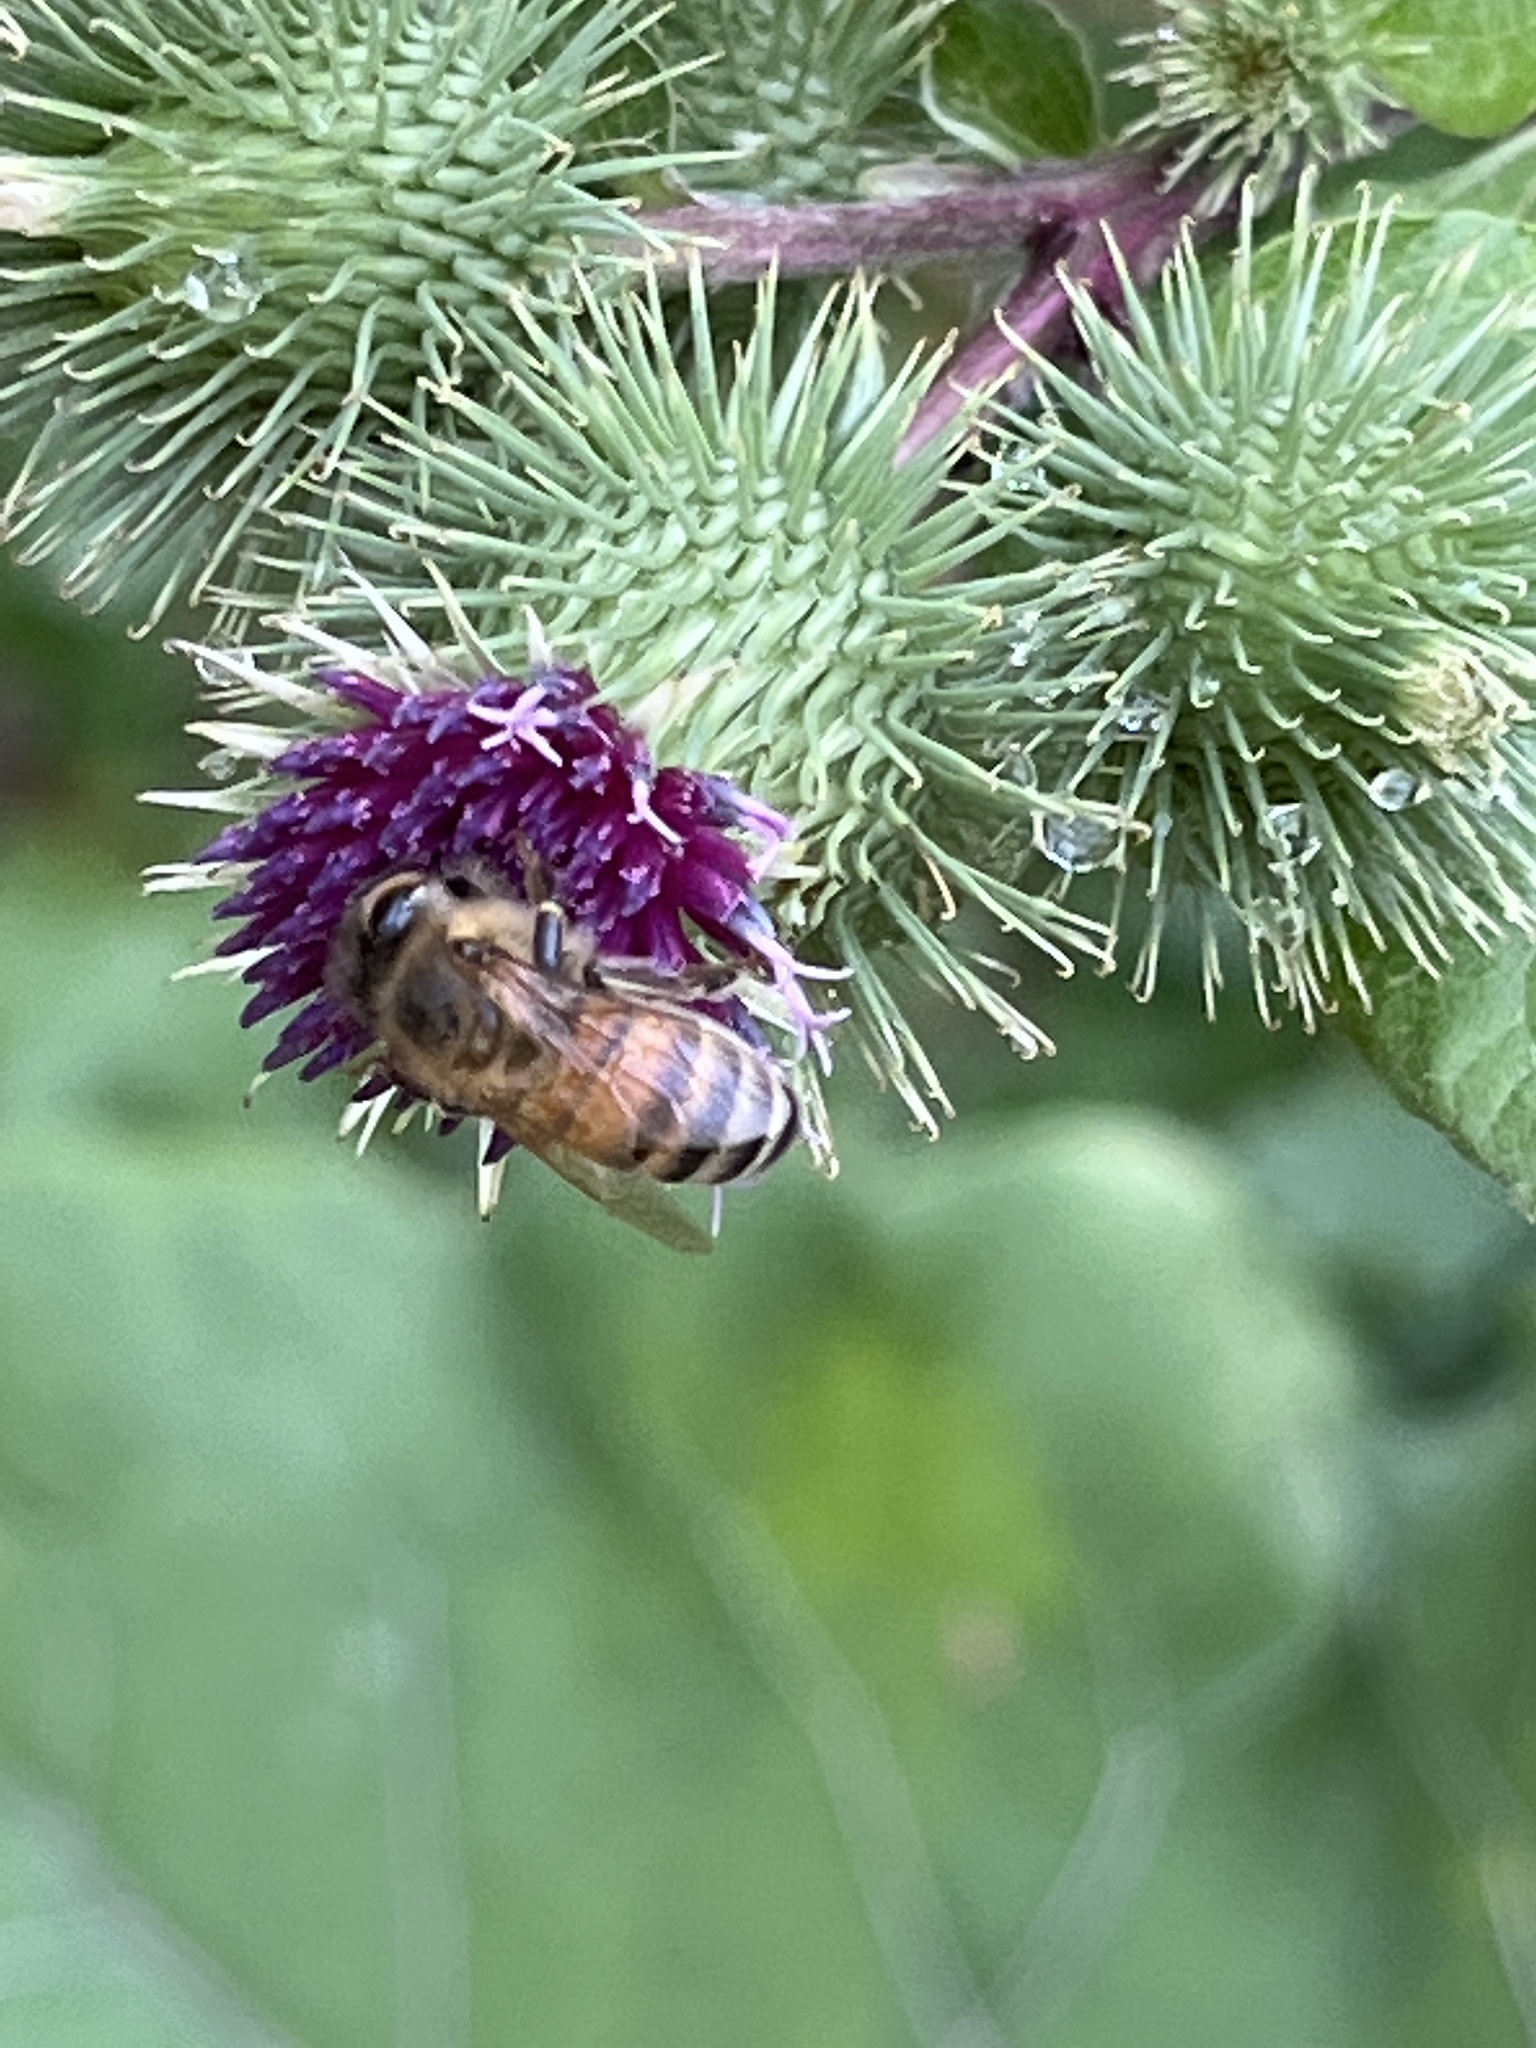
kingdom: Animalia
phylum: Arthropoda
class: Insecta
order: Hymenoptera
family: Apidae
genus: Apis
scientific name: Apis mellifera
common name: Honey bee
